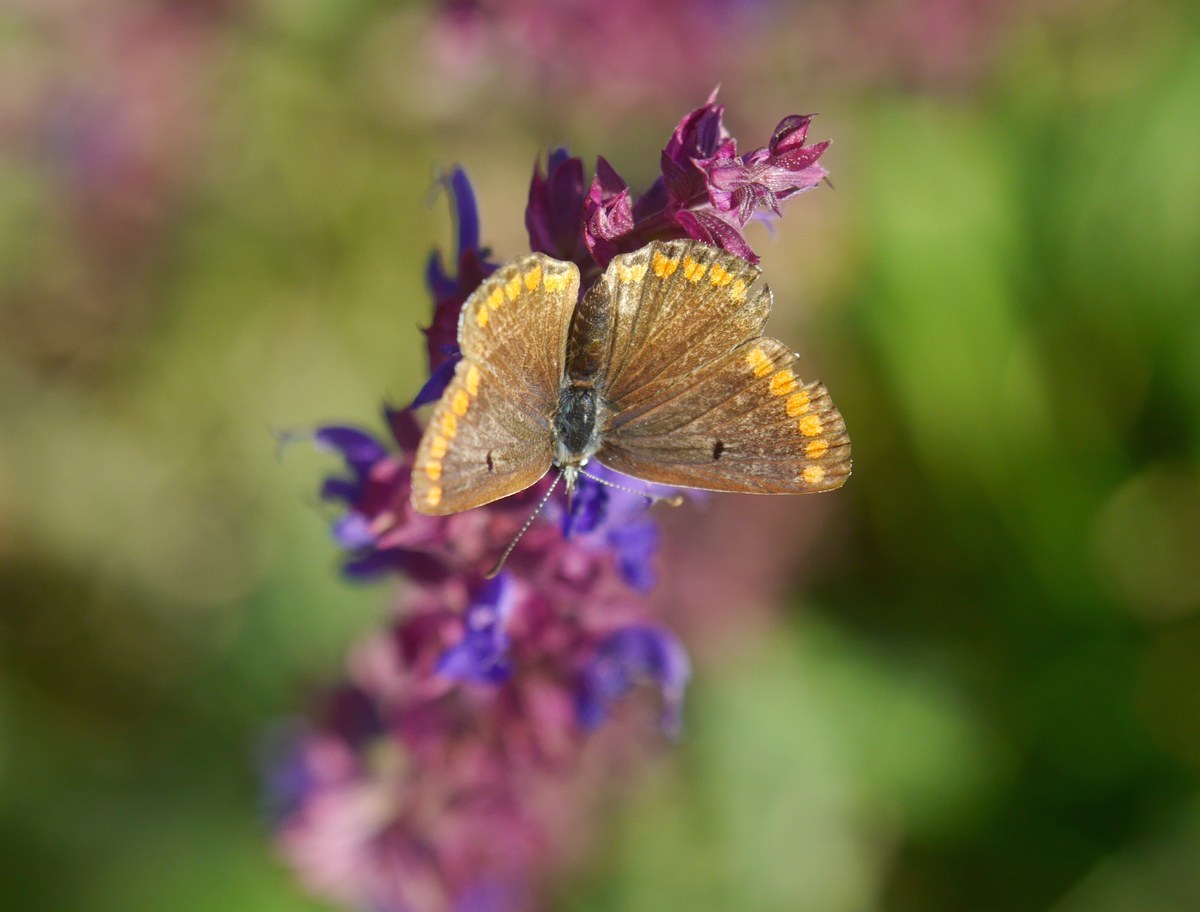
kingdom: Animalia
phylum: Arthropoda
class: Insecta
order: Lepidoptera
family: Lycaenidae
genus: Aricia
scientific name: Aricia agestis
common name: Brown argus
